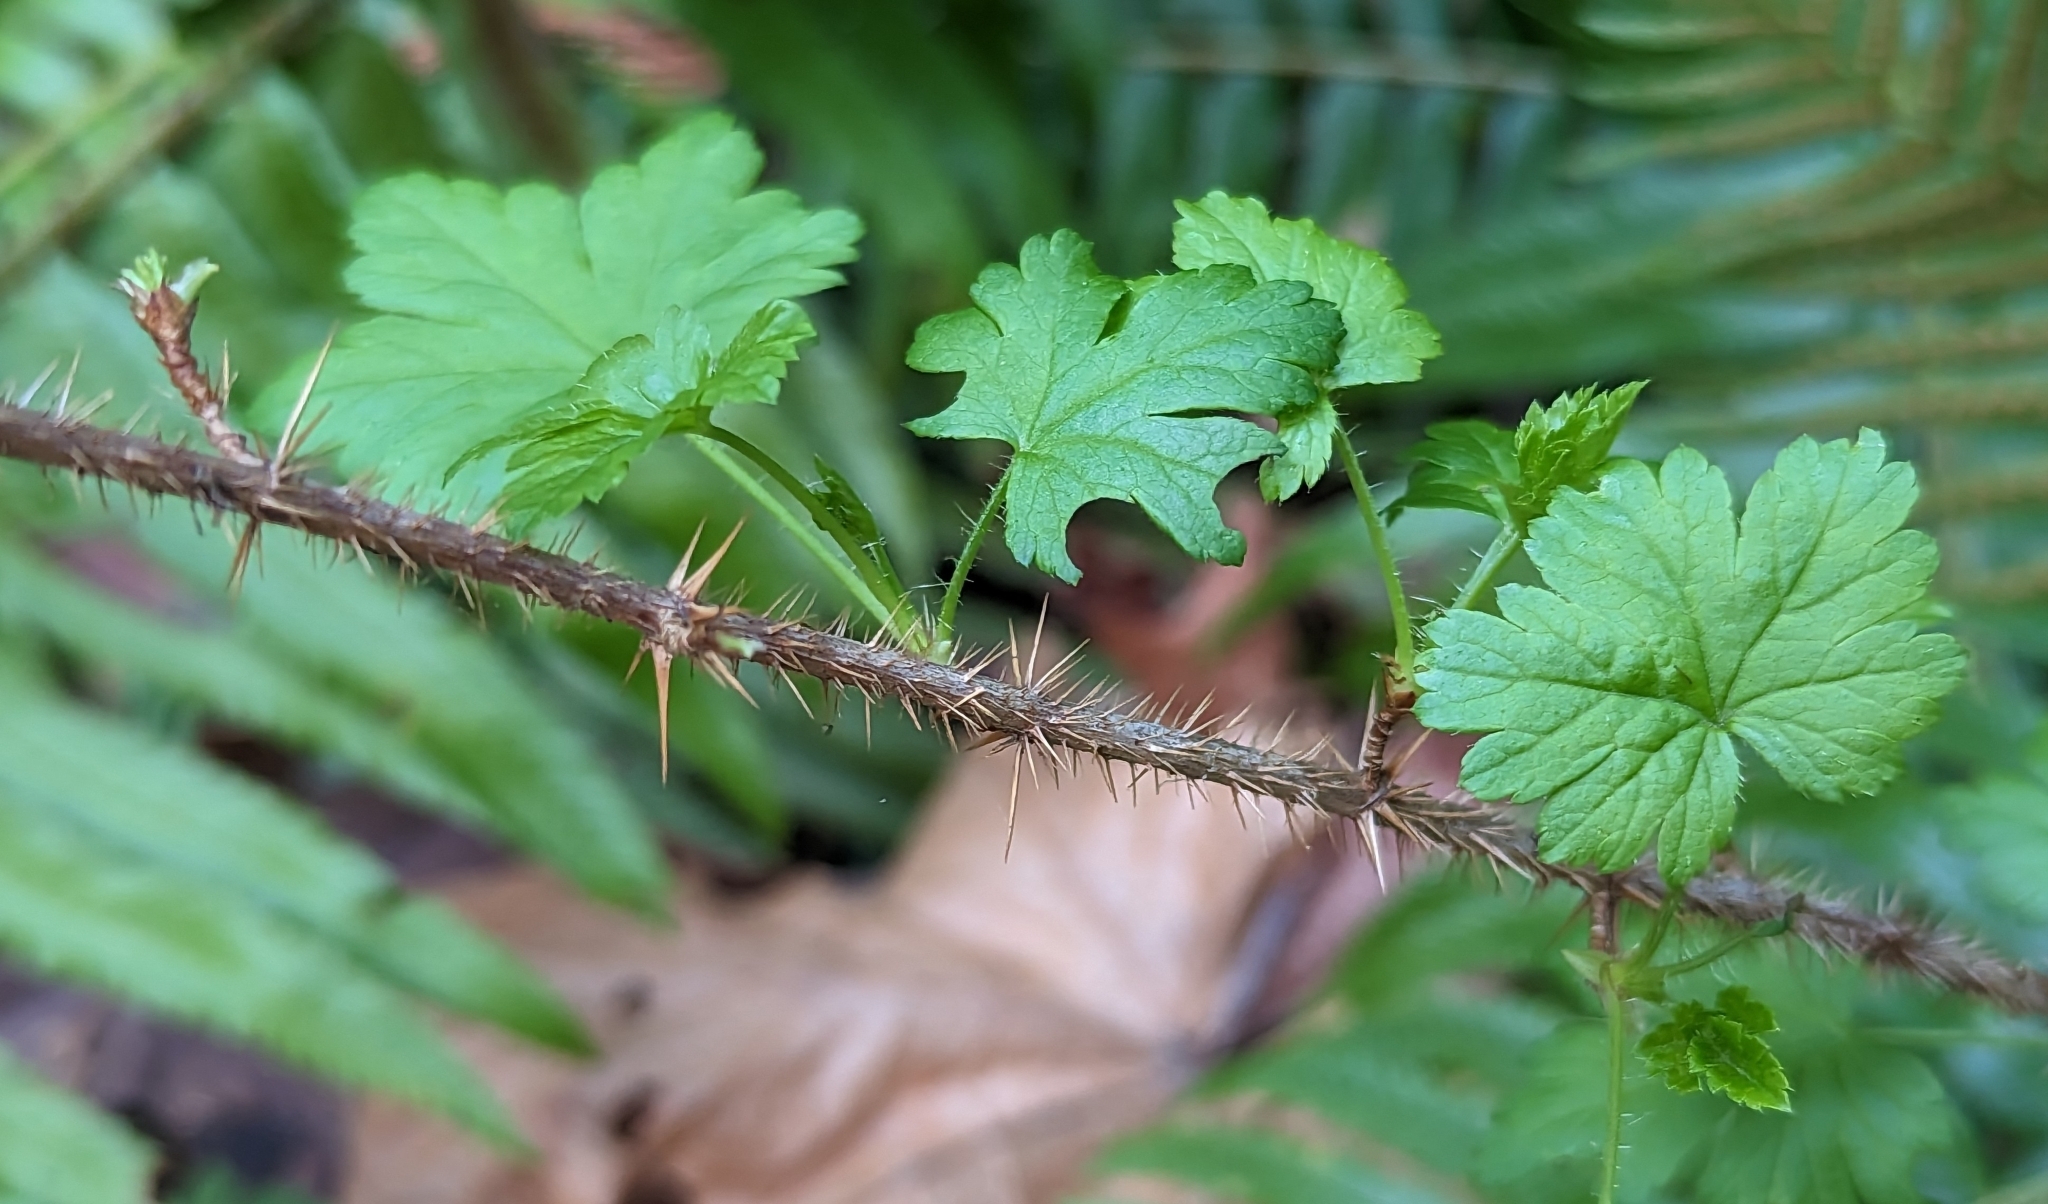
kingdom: Plantae
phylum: Tracheophyta
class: Magnoliopsida
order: Saxifragales
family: Grossulariaceae
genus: Ribes
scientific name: Ribes lacustre
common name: Black gooseberry
